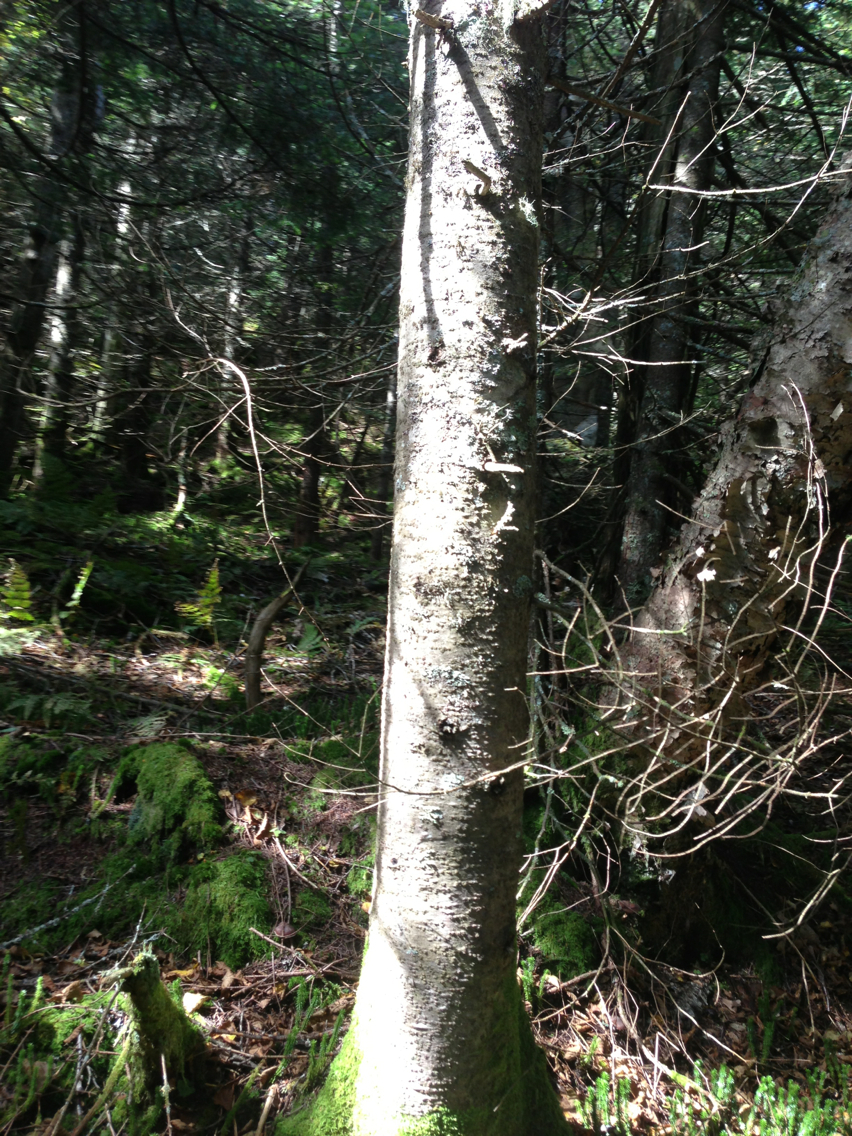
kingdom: Plantae
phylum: Tracheophyta
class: Pinopsida
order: Pinales
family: Pinaceae
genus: Abies
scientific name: Abies balsamea
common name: Balsam fir
